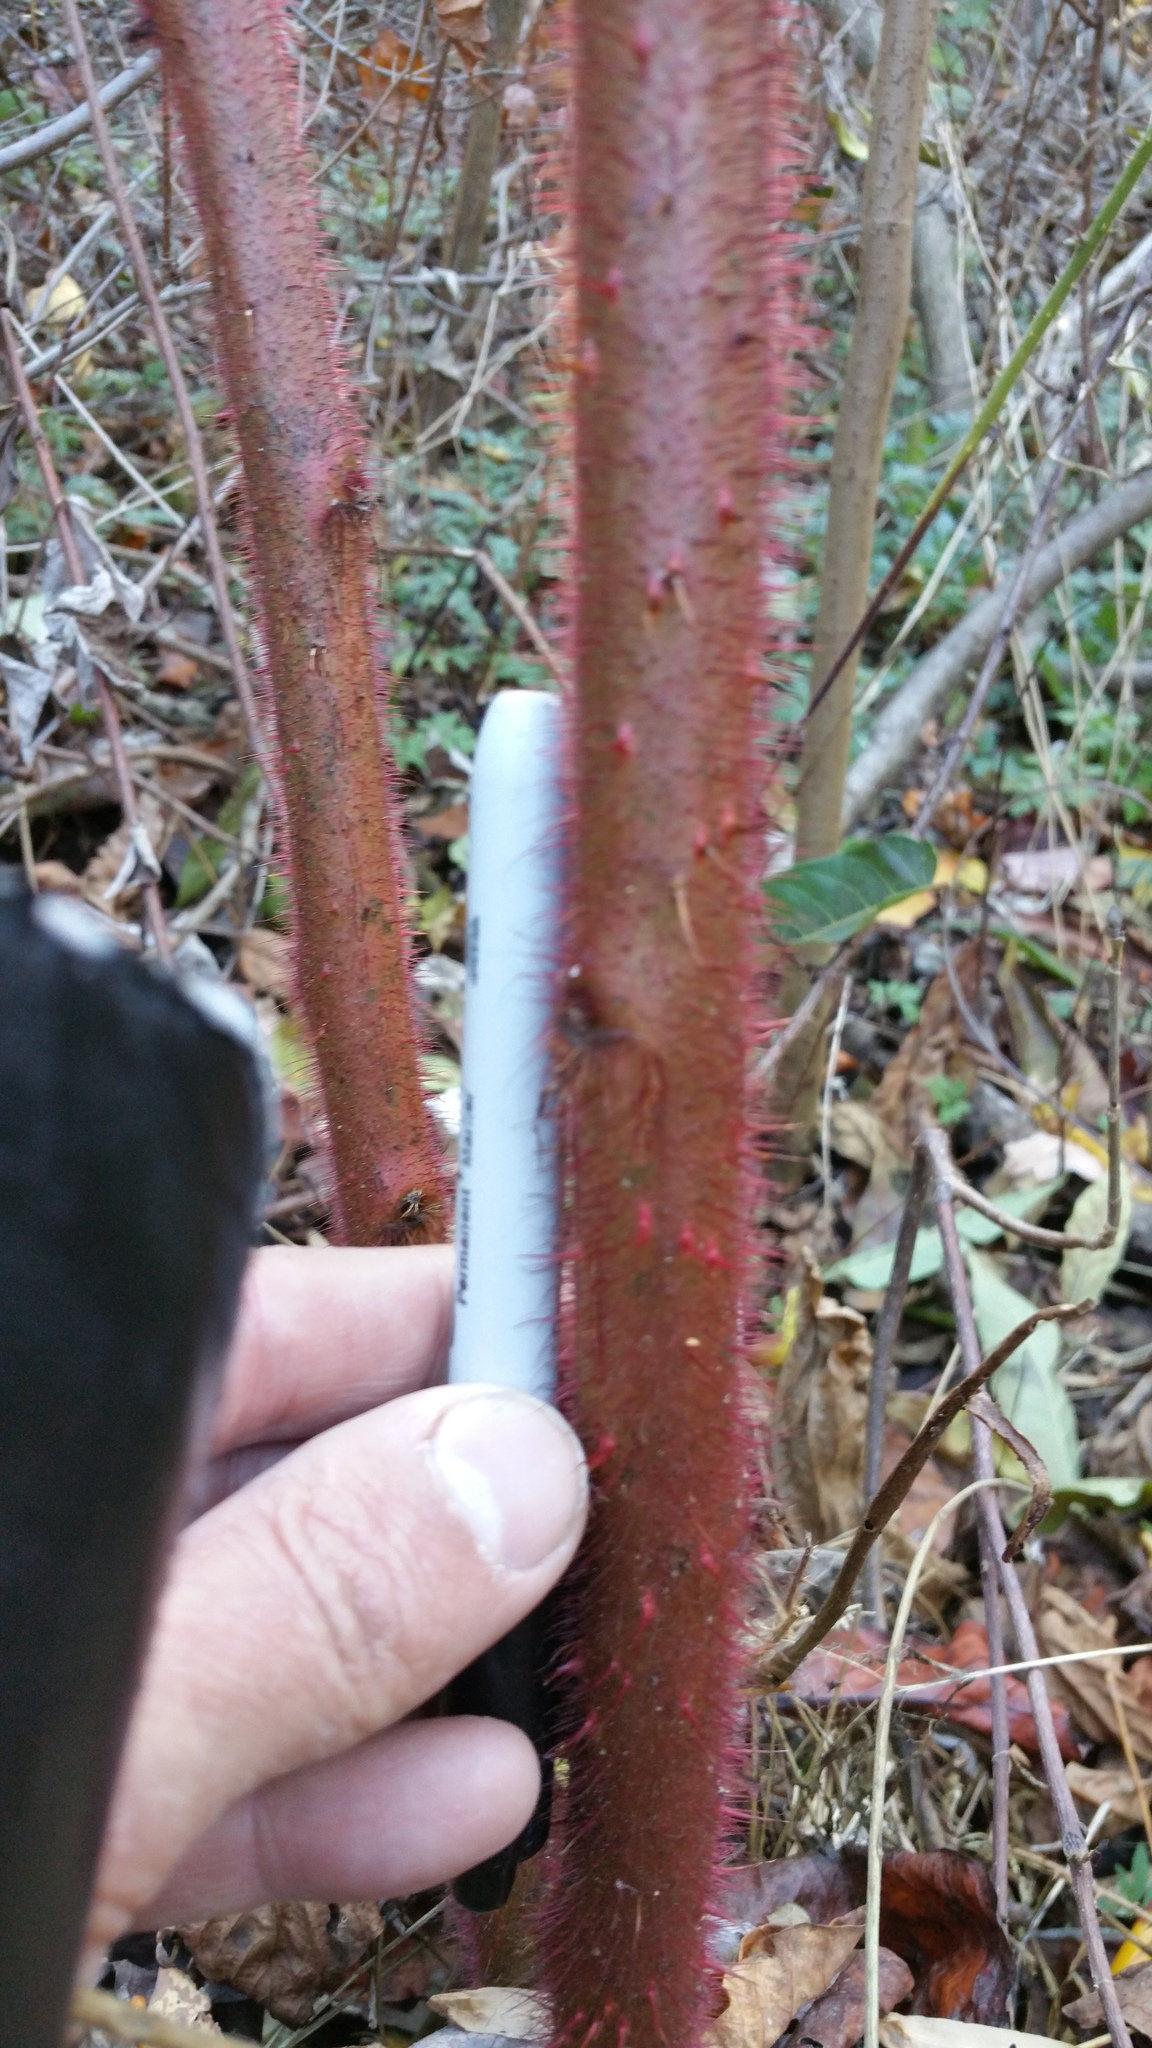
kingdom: Plantae
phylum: Tracheophyta
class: Magnoliopsida
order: Rosales
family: Rosaceae
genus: Rubus
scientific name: Rubus phoenicolasius
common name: Japanese wineberry
